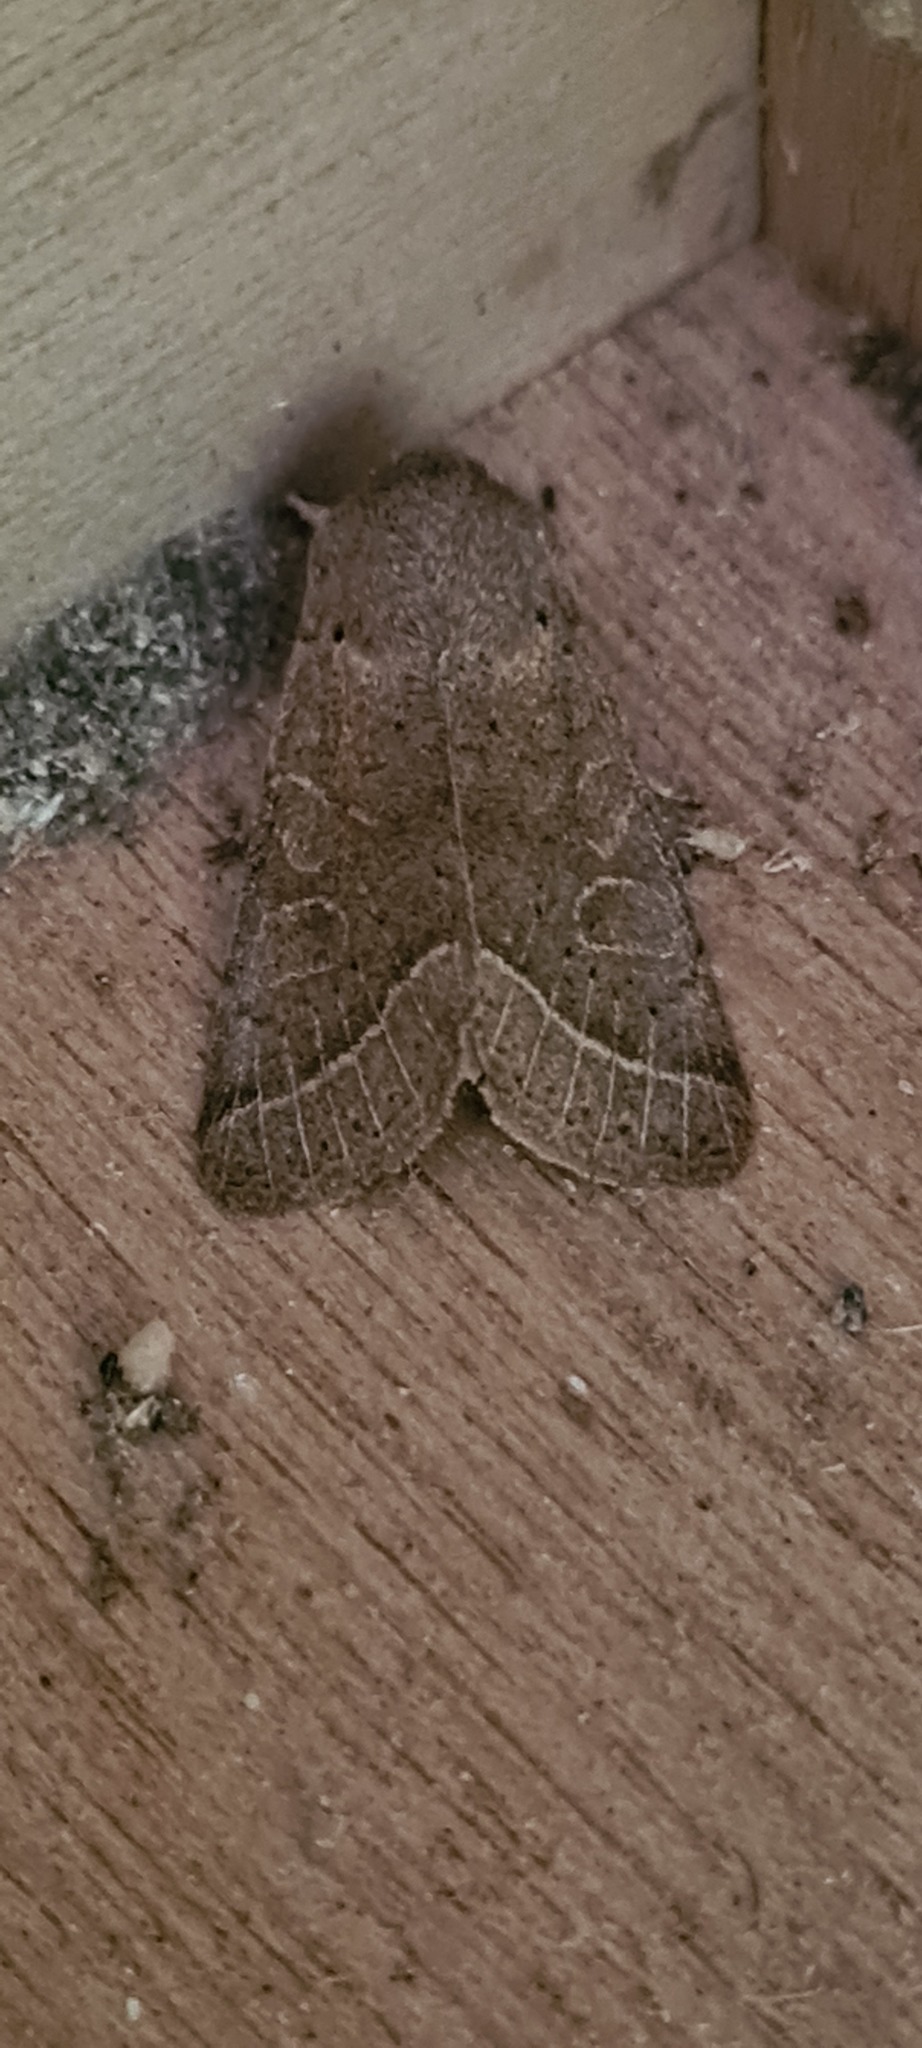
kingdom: Animalia
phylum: Arthropoda
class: Insecta
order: Lepidoptera
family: Noctuidae
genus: Orthosia
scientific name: Orthosia cerasi
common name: Common quaker
